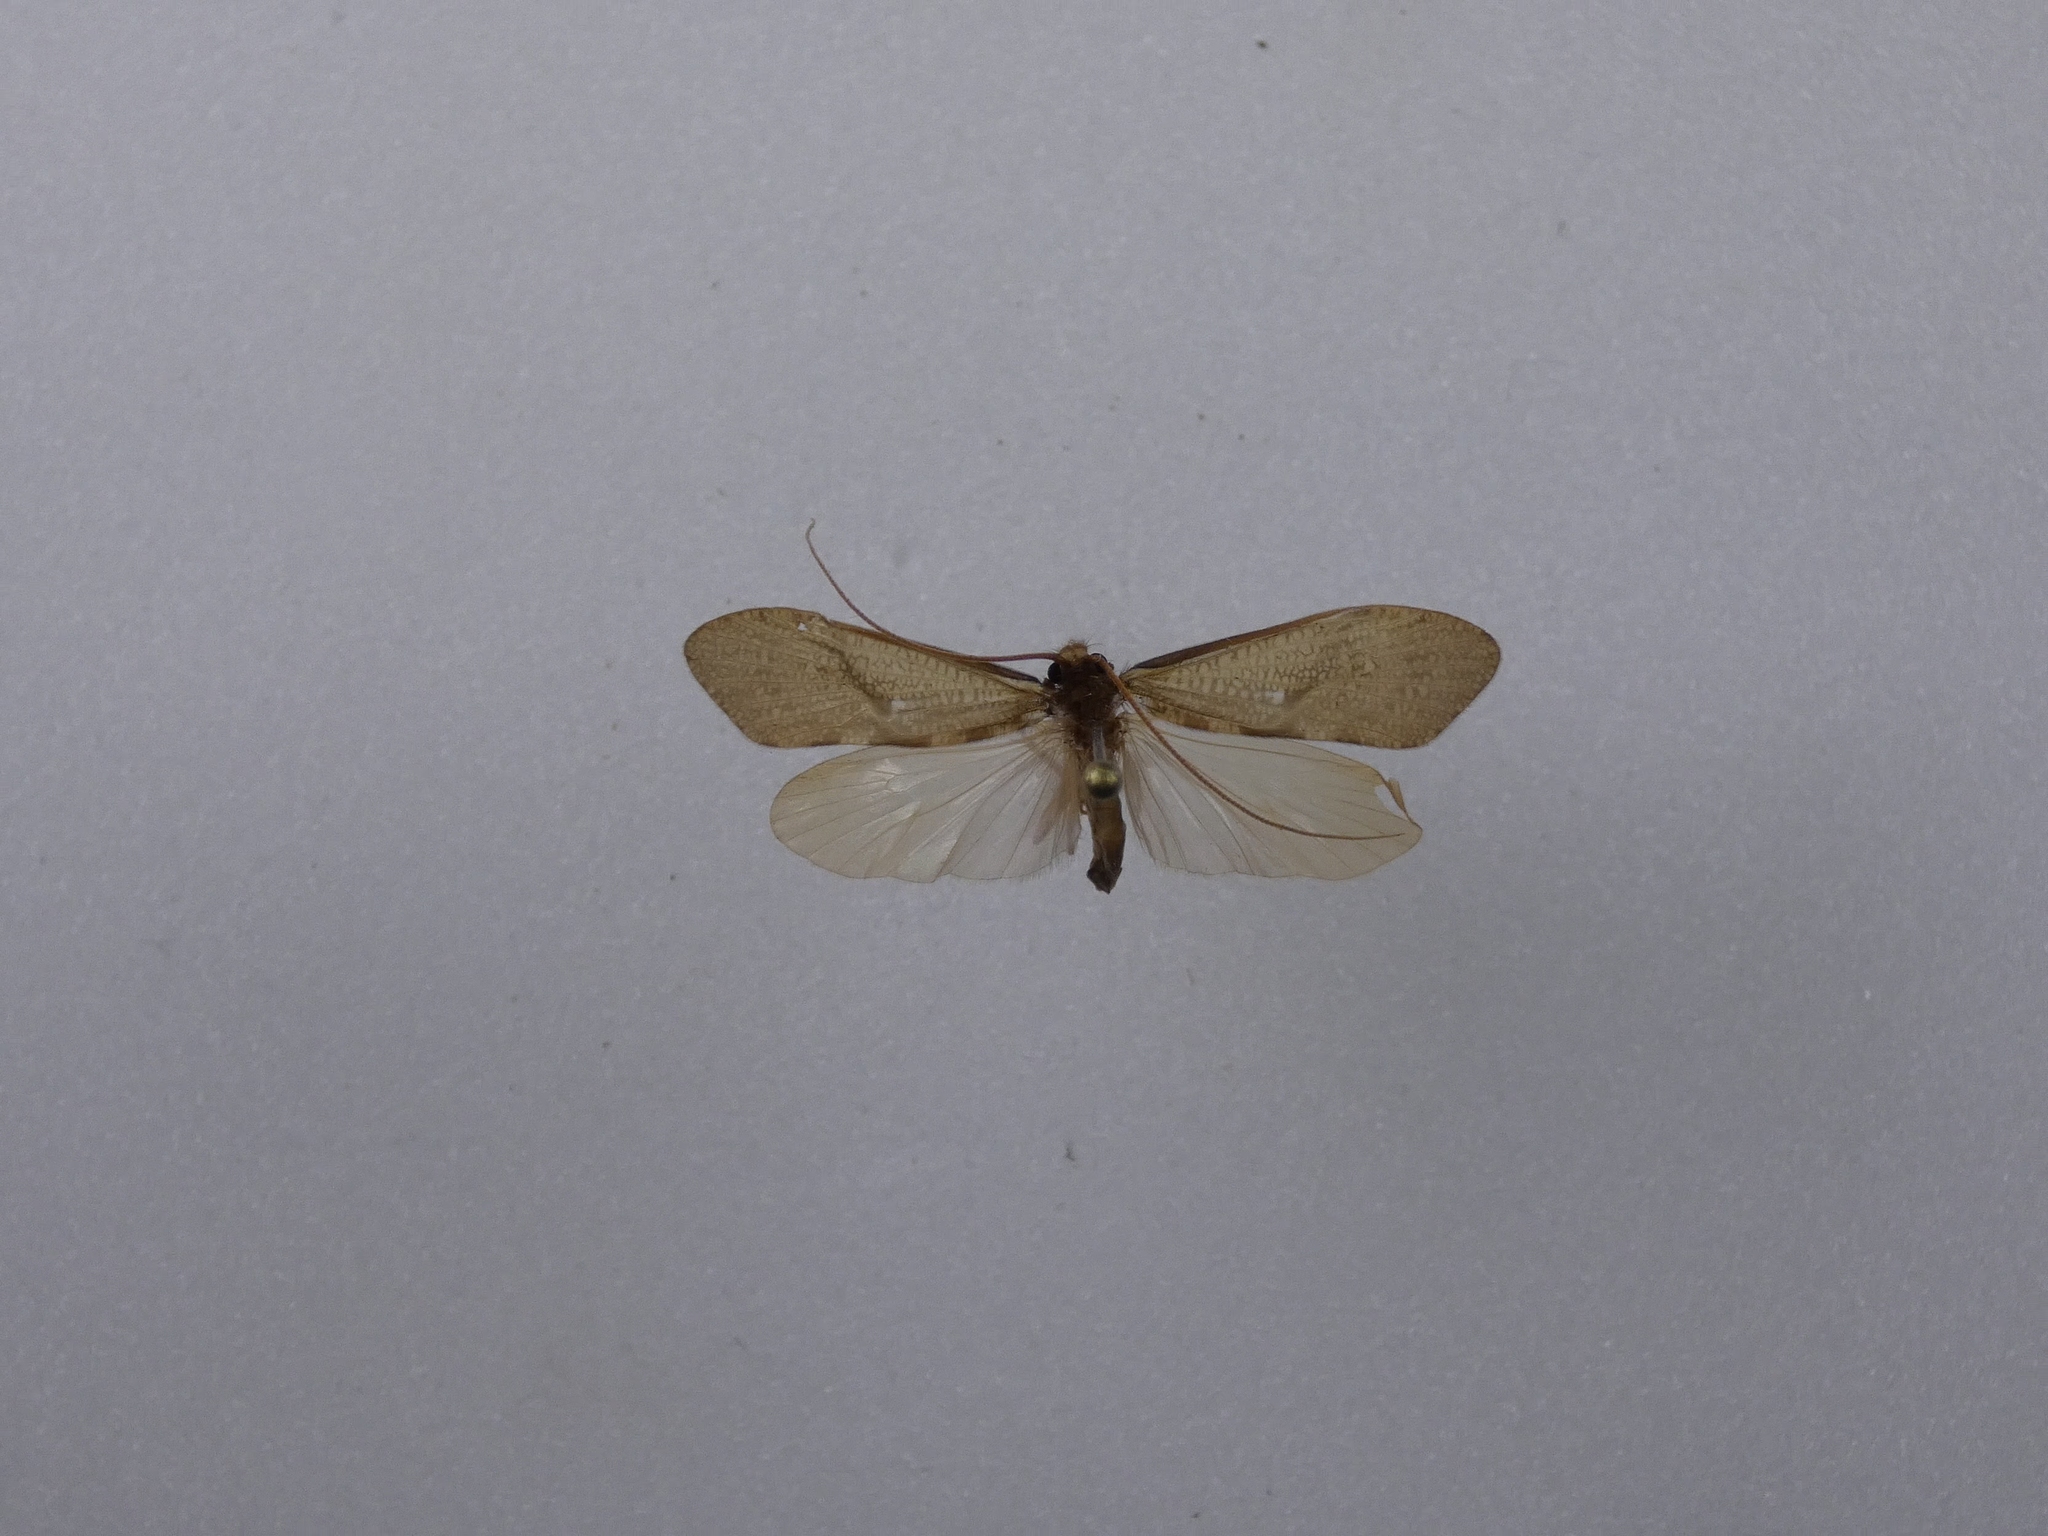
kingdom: Animalia
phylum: Arthropoda
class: Insecta
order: Trichoptera
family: Oeconesidae
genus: Oeconesus
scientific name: Oeconesus maori
